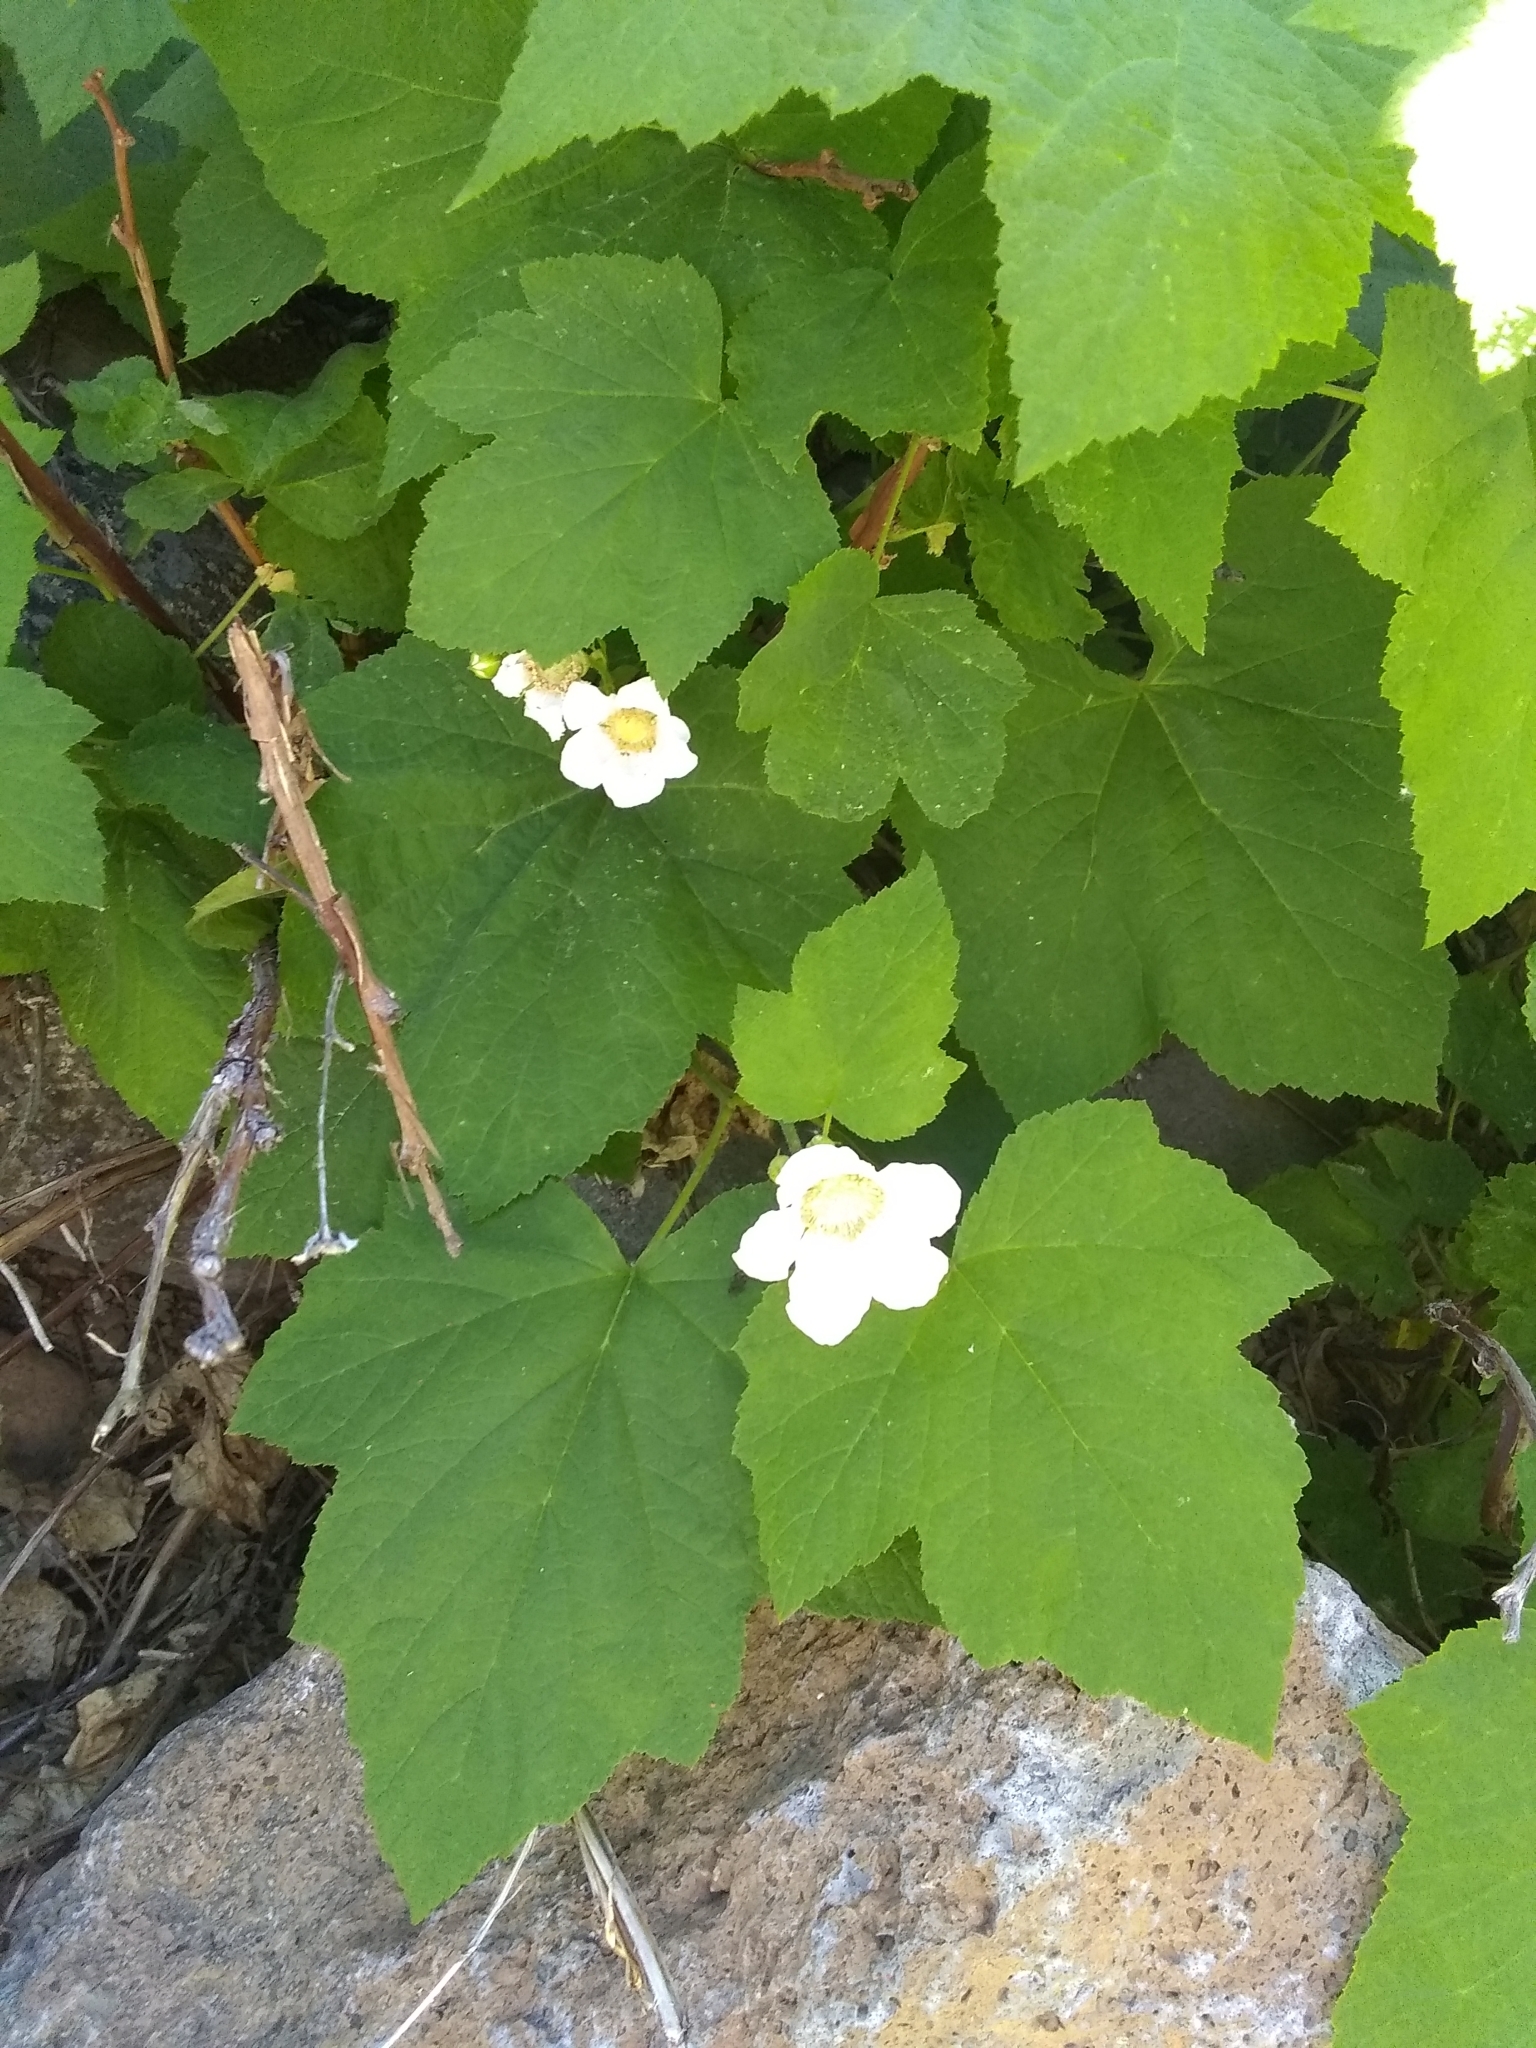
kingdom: Plantae
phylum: Tracheophyta
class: Magnoliopsida
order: Rosales
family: Rosaceae
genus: Rubus
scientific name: Rubus parviflorus
